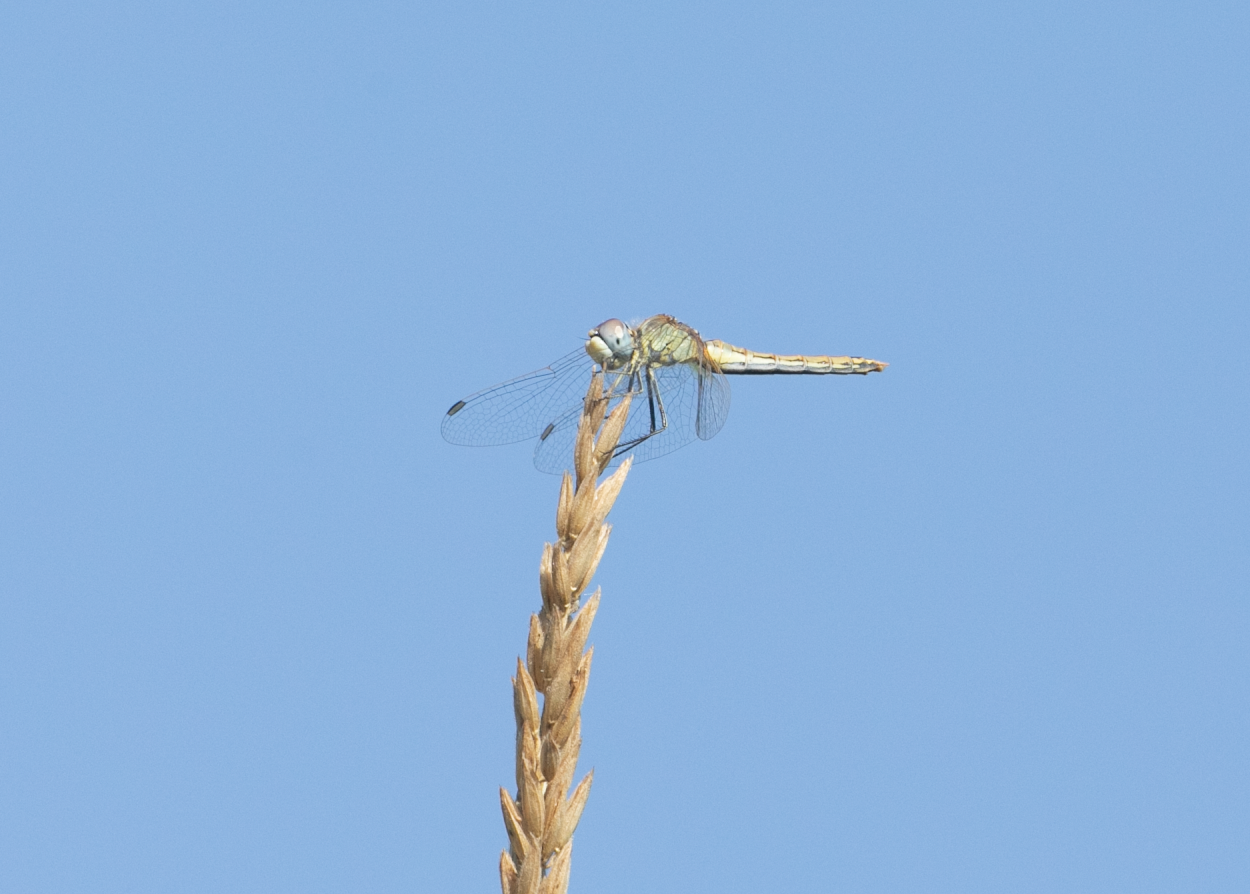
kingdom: Animalia
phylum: Arthropoda
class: Insecta
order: Odonata
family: Libellulidae
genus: Sympetrum
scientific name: Sympetrum fonscolombii
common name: Red-veined darter
